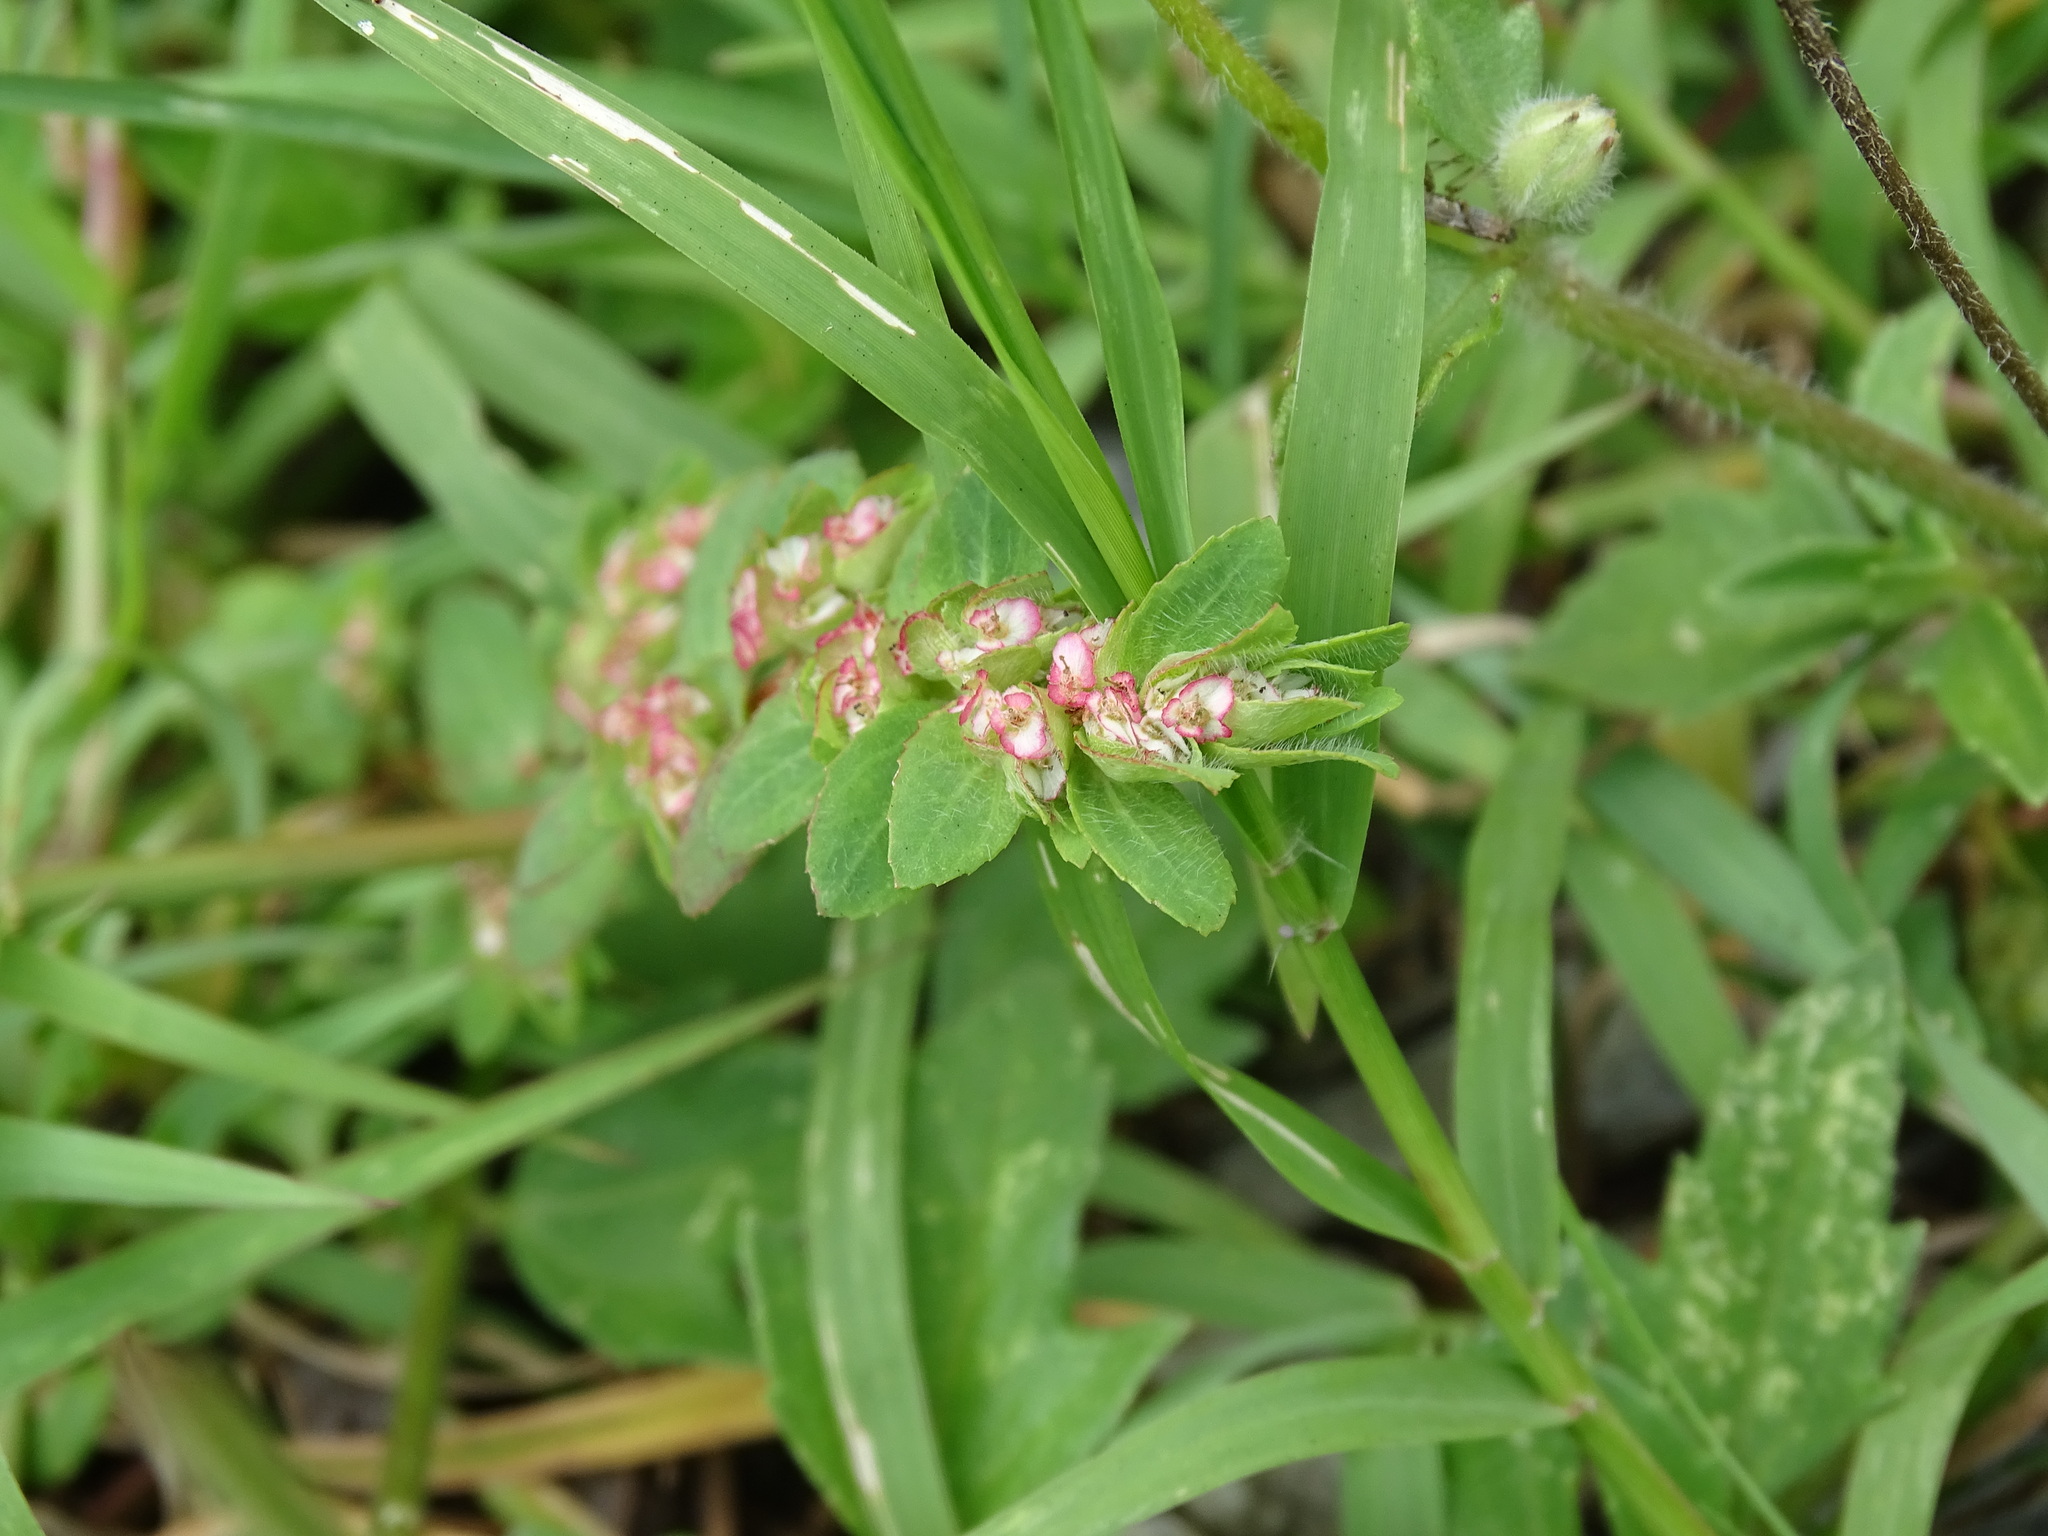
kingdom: Plantae
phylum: Tracheophyta
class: Magnoliopsida
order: Malpighiales
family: Euphorbiaceae
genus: Euphorbia
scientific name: Euphorbia dioeca
